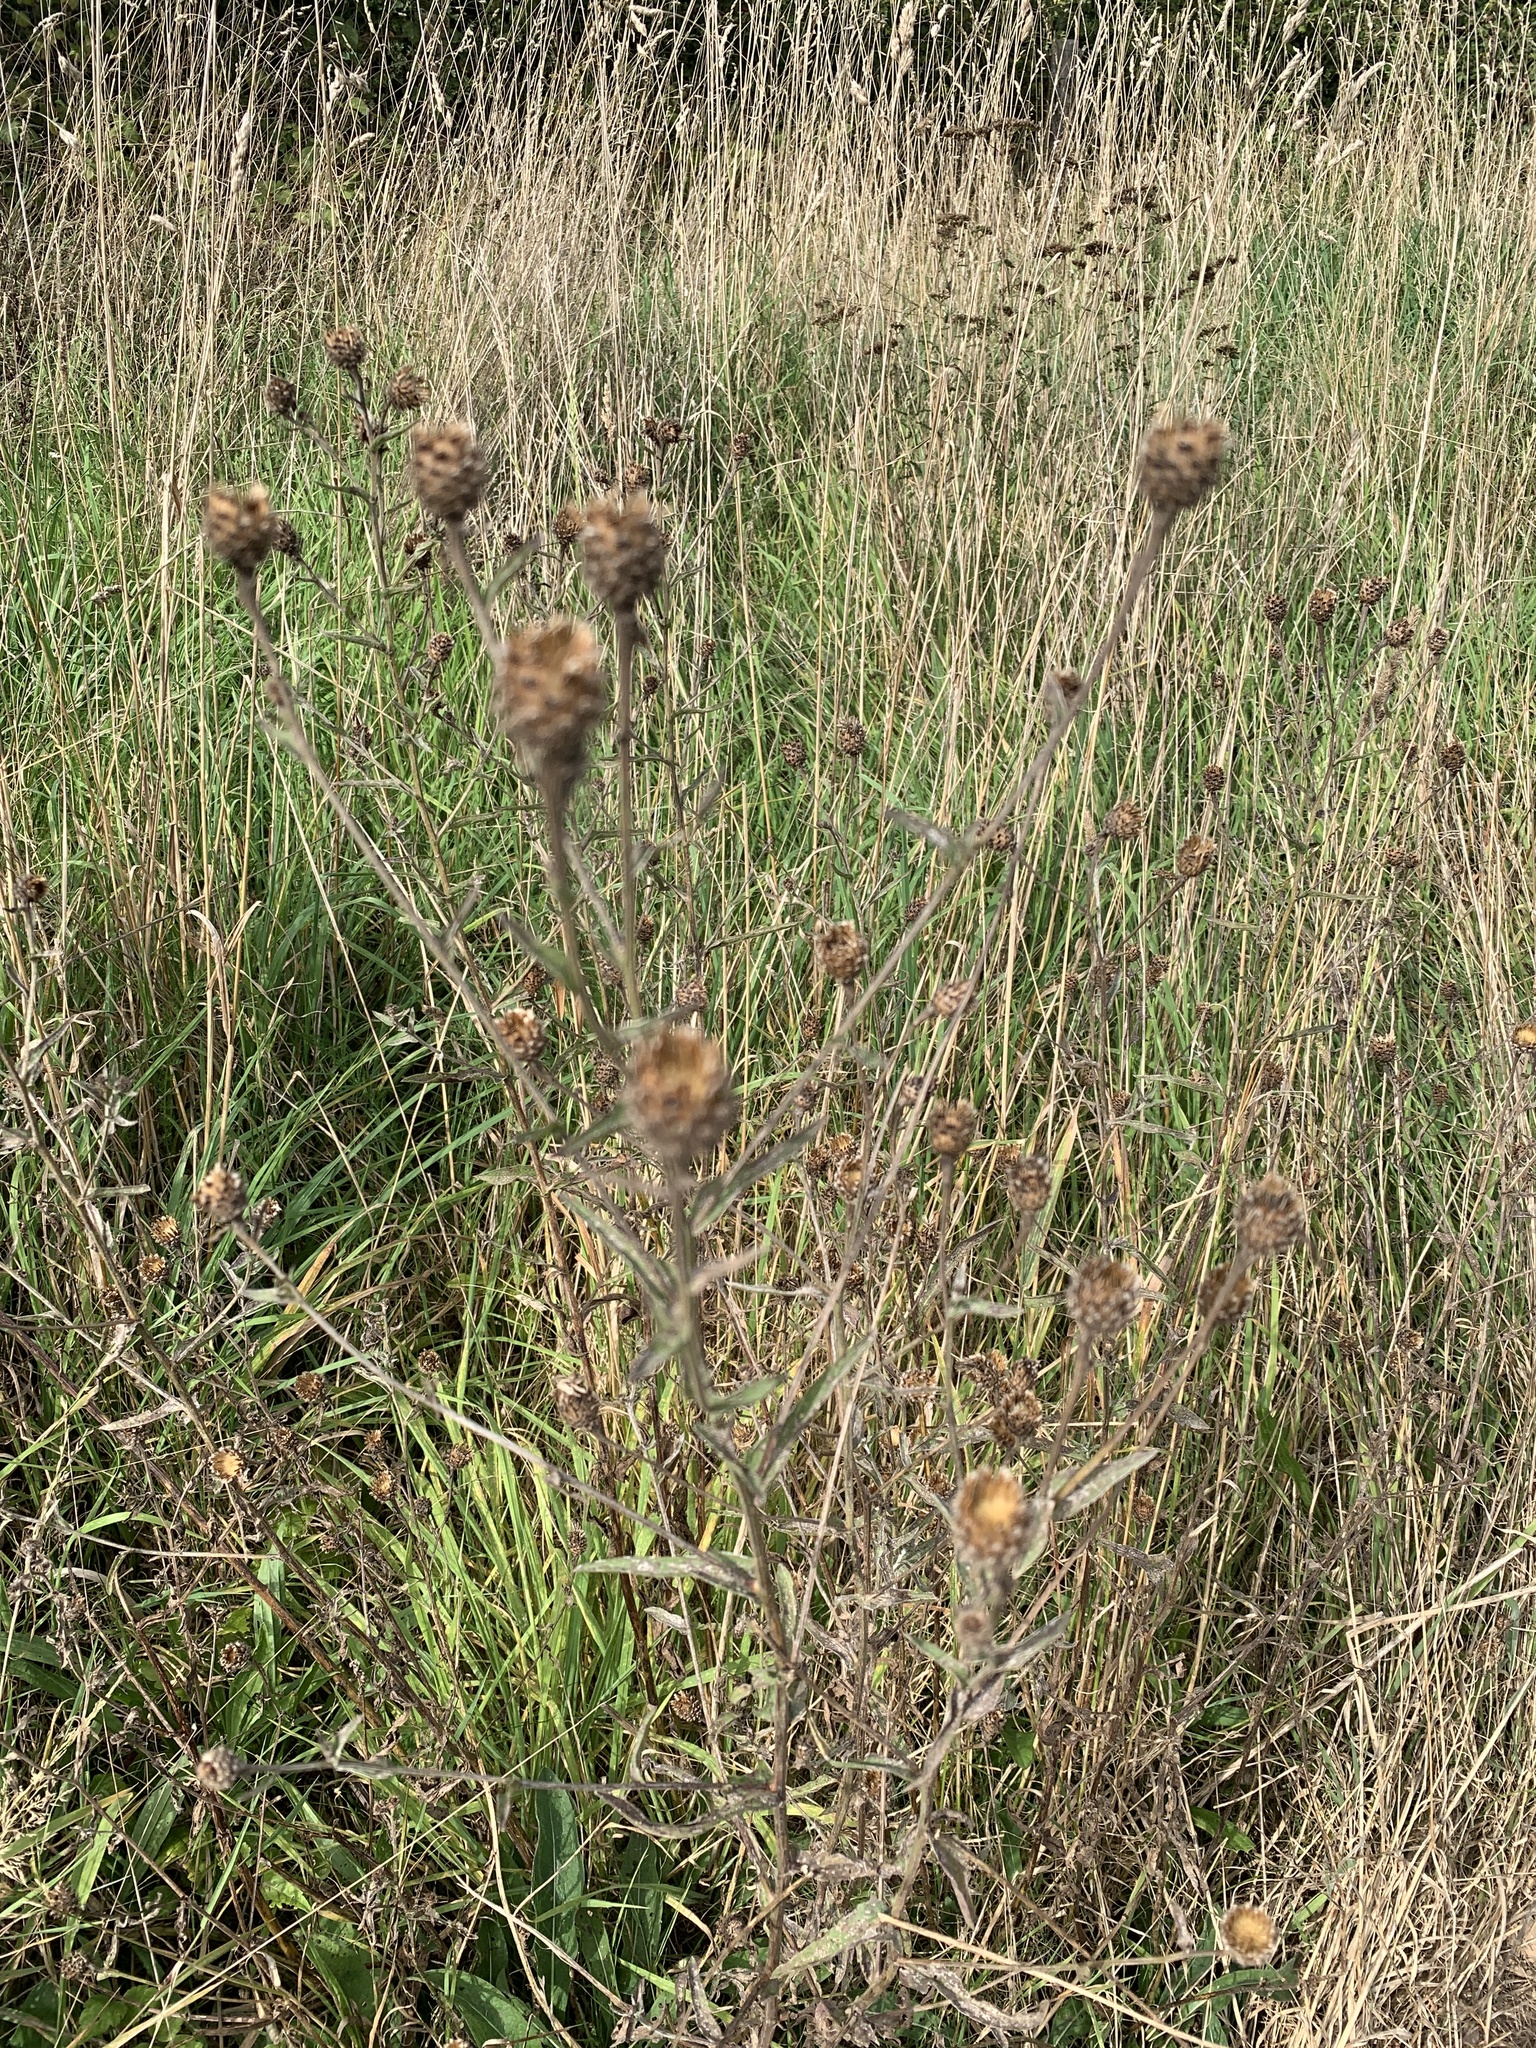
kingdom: Plantae
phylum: Tracheophyta
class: Magnoliopsida
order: Asterales
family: Asteraceae
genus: Centaurea
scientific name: Centaurea nigra
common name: Lesser knapweed
